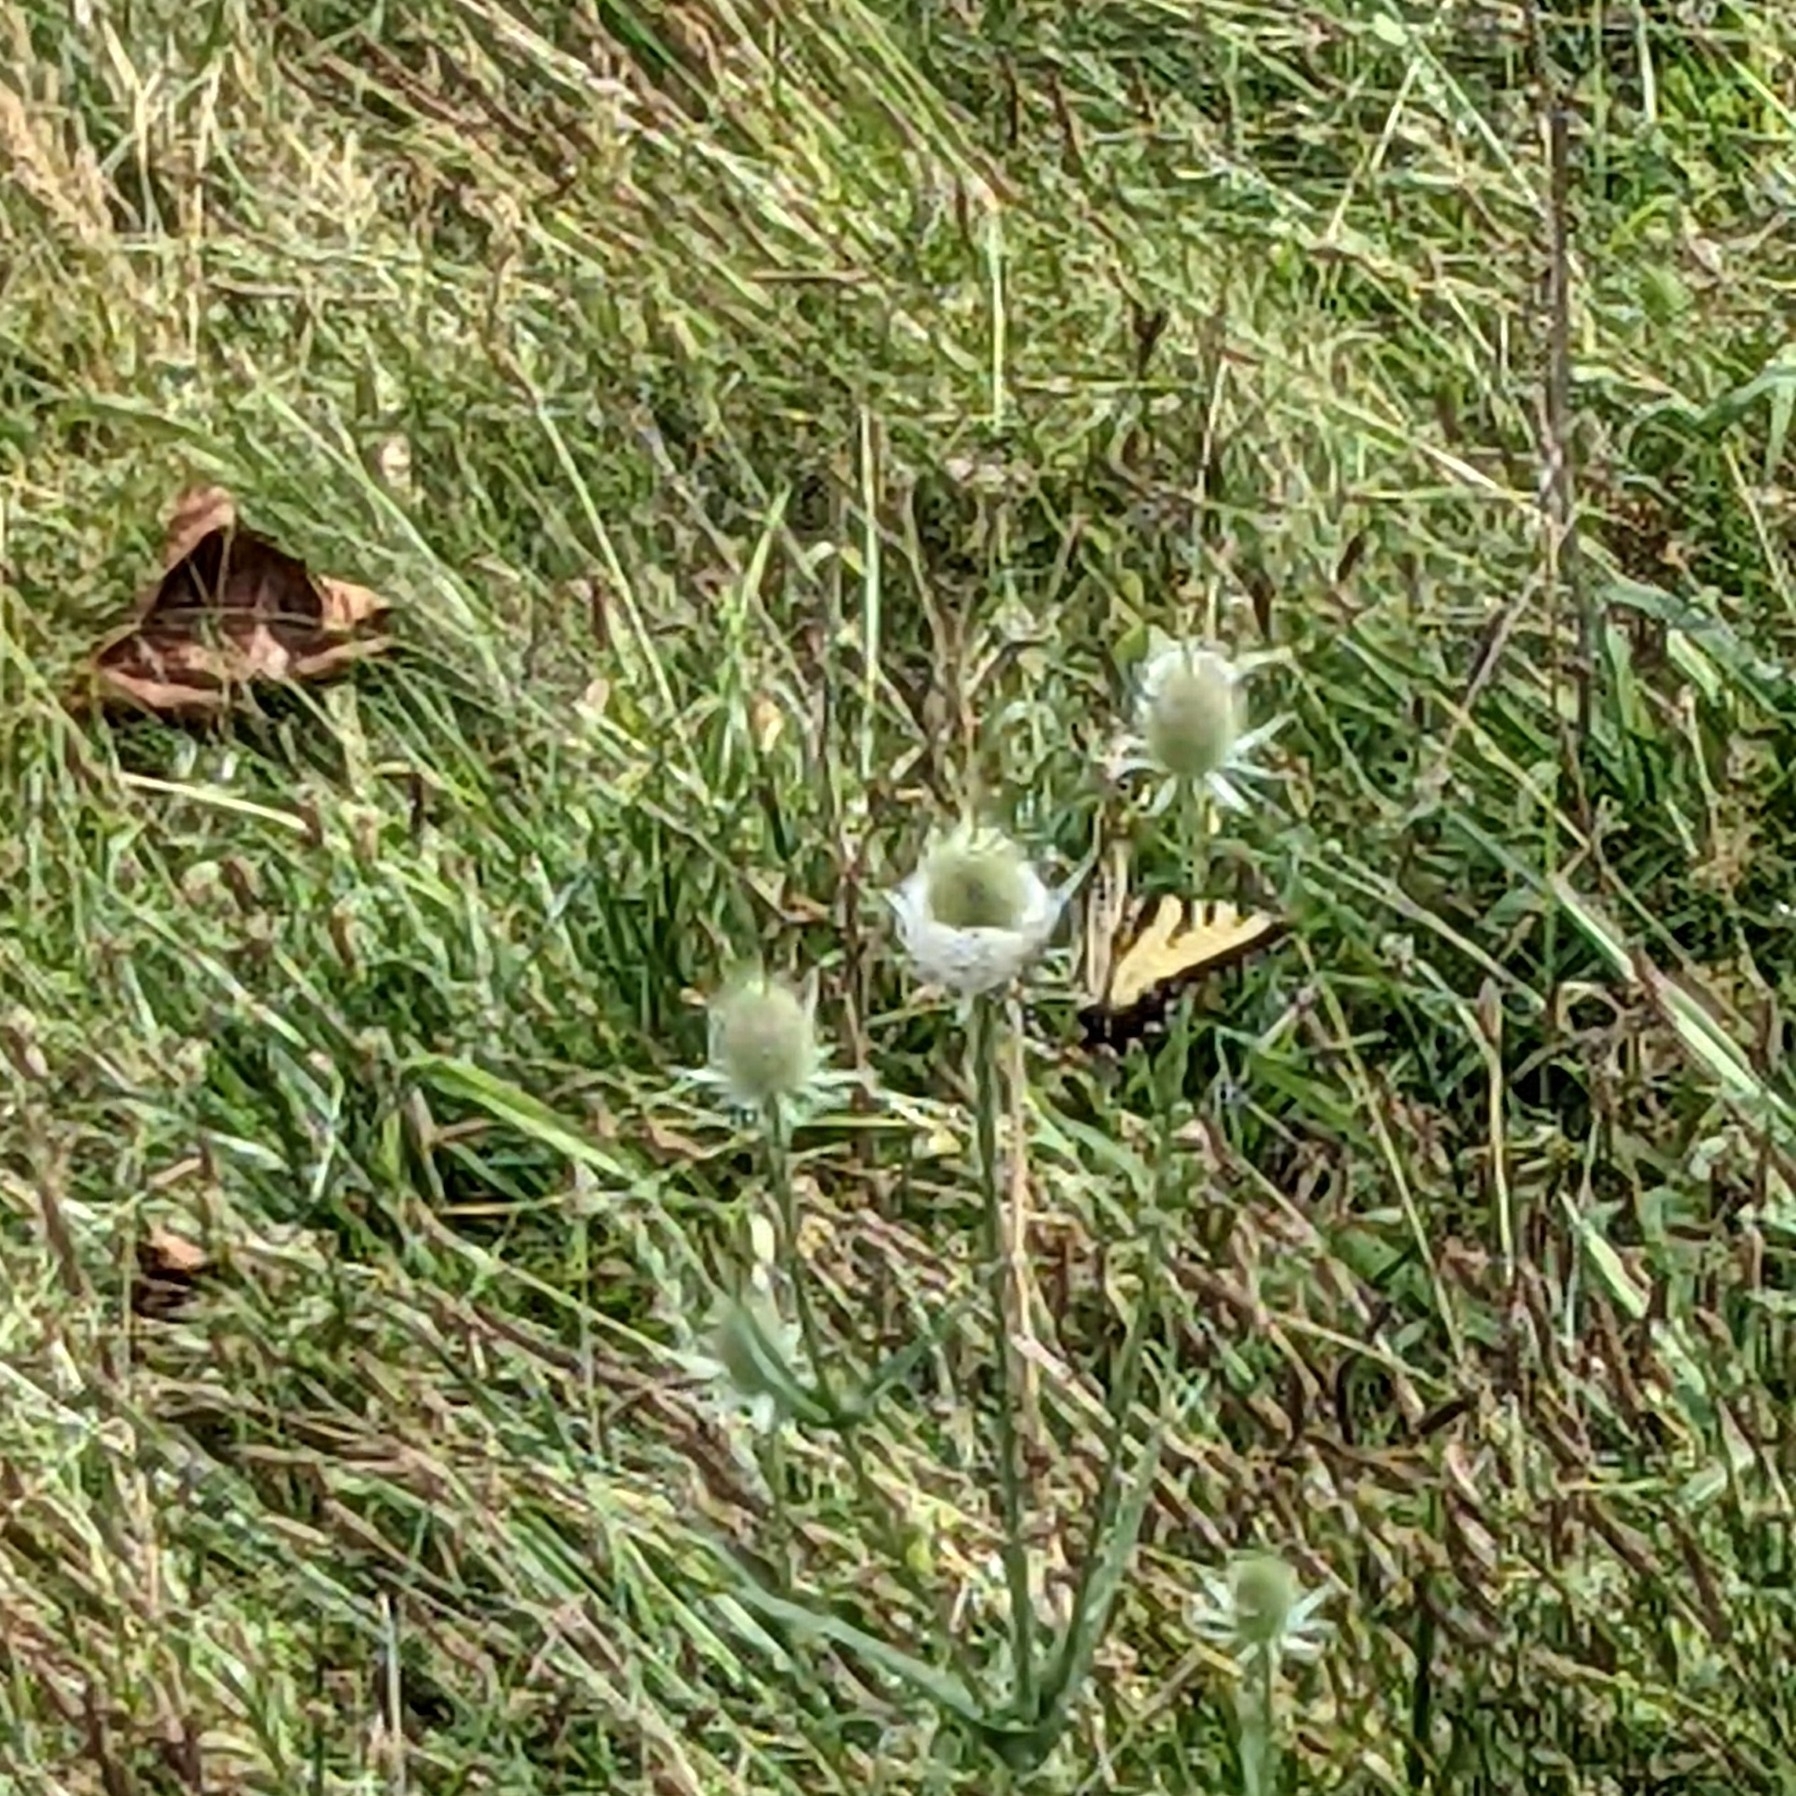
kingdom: Animalia
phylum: Arthropoda
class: Insecta
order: Lepidoptera
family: Papilionidae
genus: Papilio
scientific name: Papilio glaucus
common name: Tiger swallowtail
